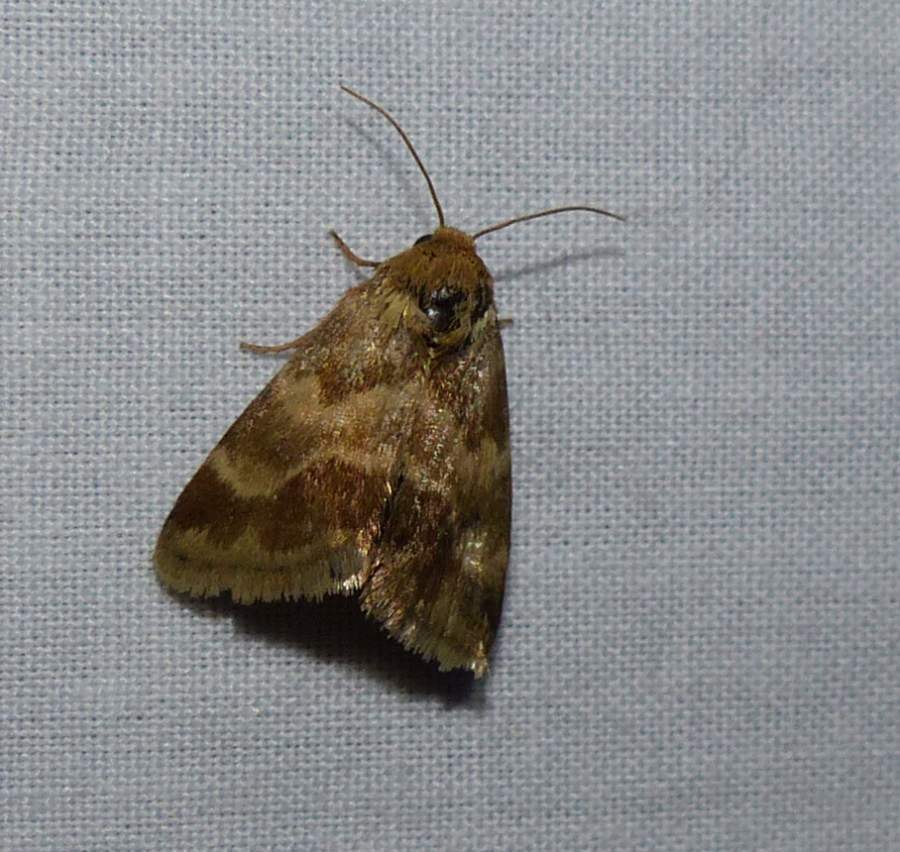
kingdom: Animalia
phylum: Arthropoda
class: Insecta
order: Lepidoptera
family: Noctuidae
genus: Schinia
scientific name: Schinia obscurata
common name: Erigeron flower moth
